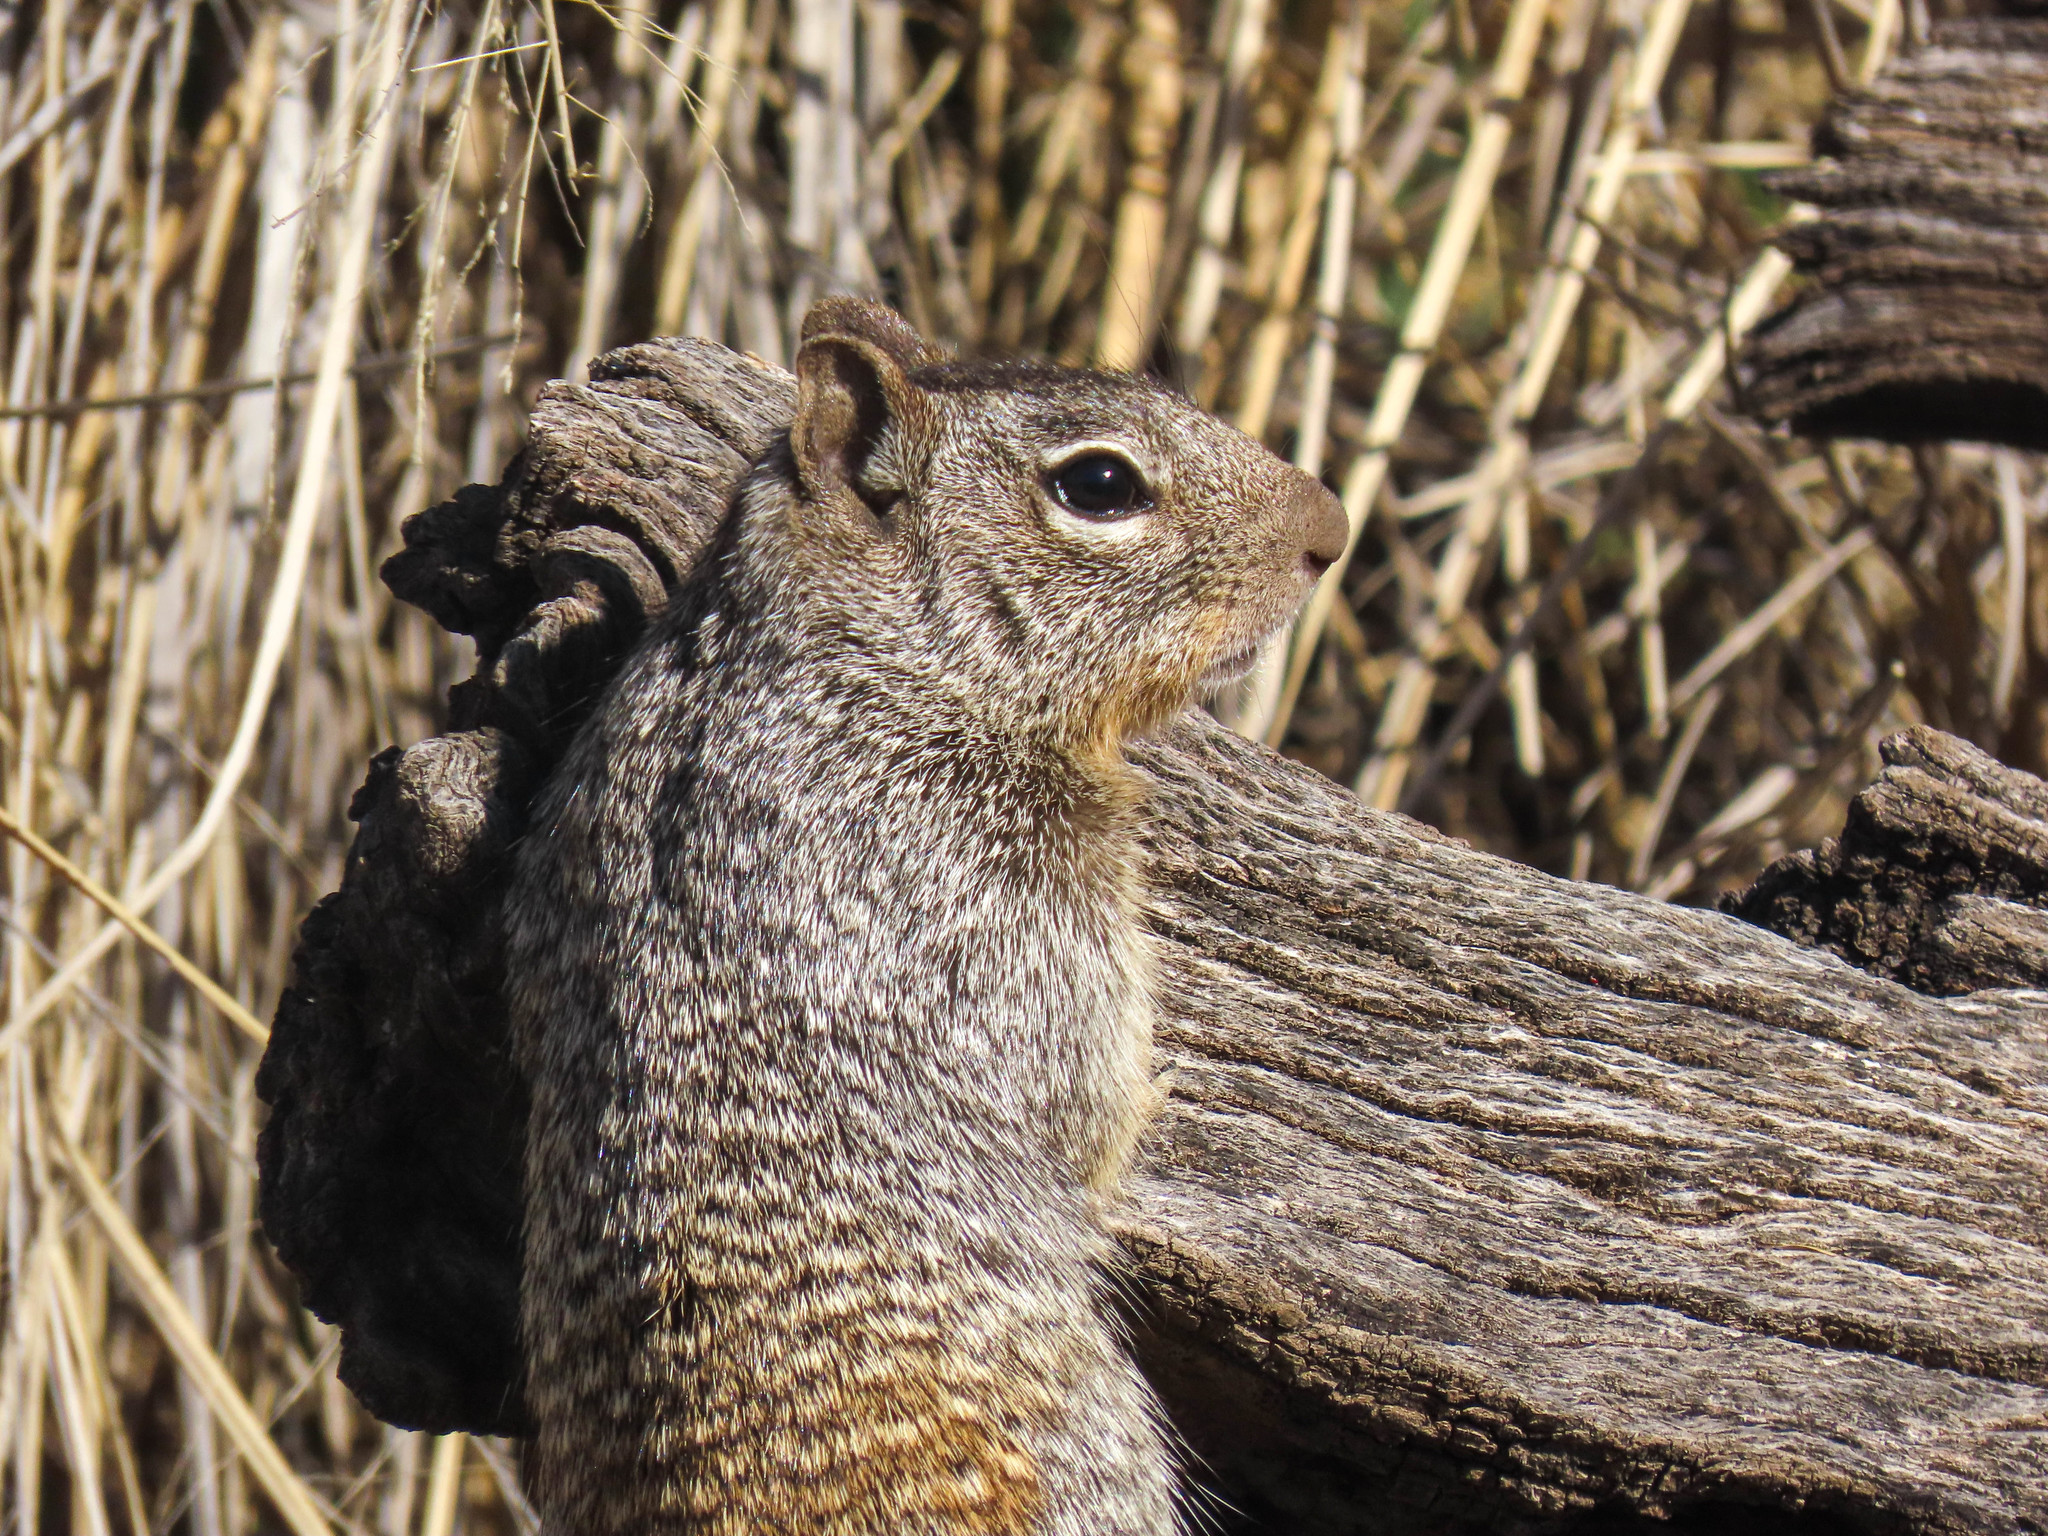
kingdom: Animalia
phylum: Chordata
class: Mammalia
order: Rodentia
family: Sciuridae
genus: Otospermophilus
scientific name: Otospermophilus variegatus
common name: Rock squirrel
